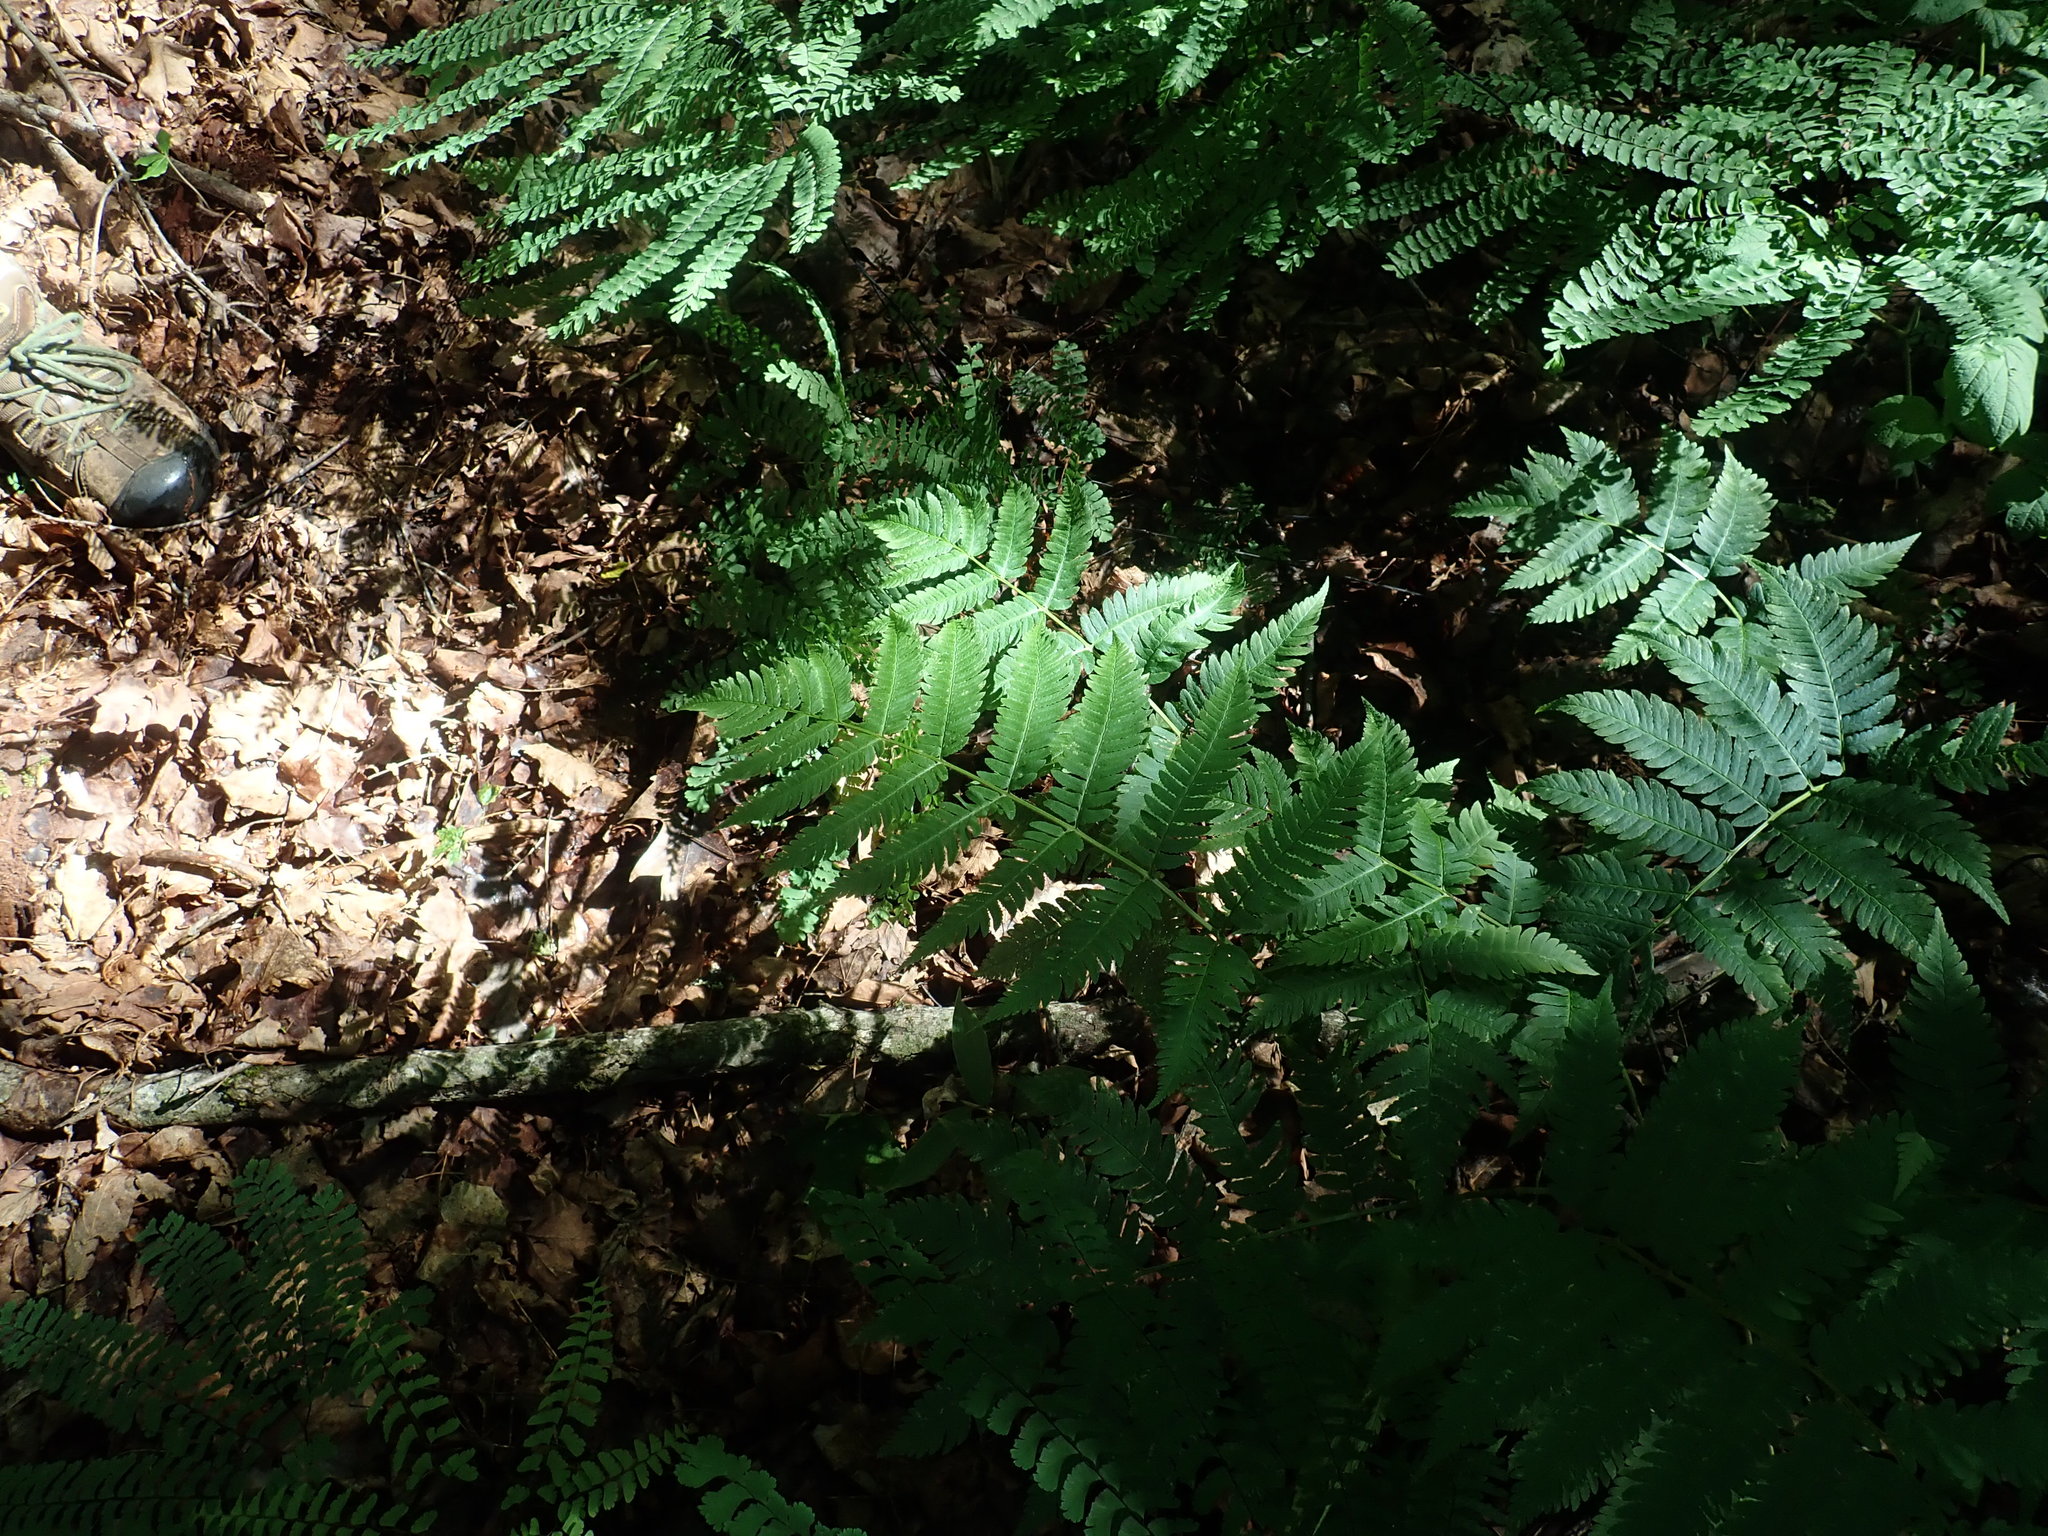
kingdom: Plantae
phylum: Tracheophyta
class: Polypodiopsida
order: Polypodiales
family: Dryopteridaceae
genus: Dryopteris
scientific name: Dryopteris goldieana
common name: Goldie's fern
